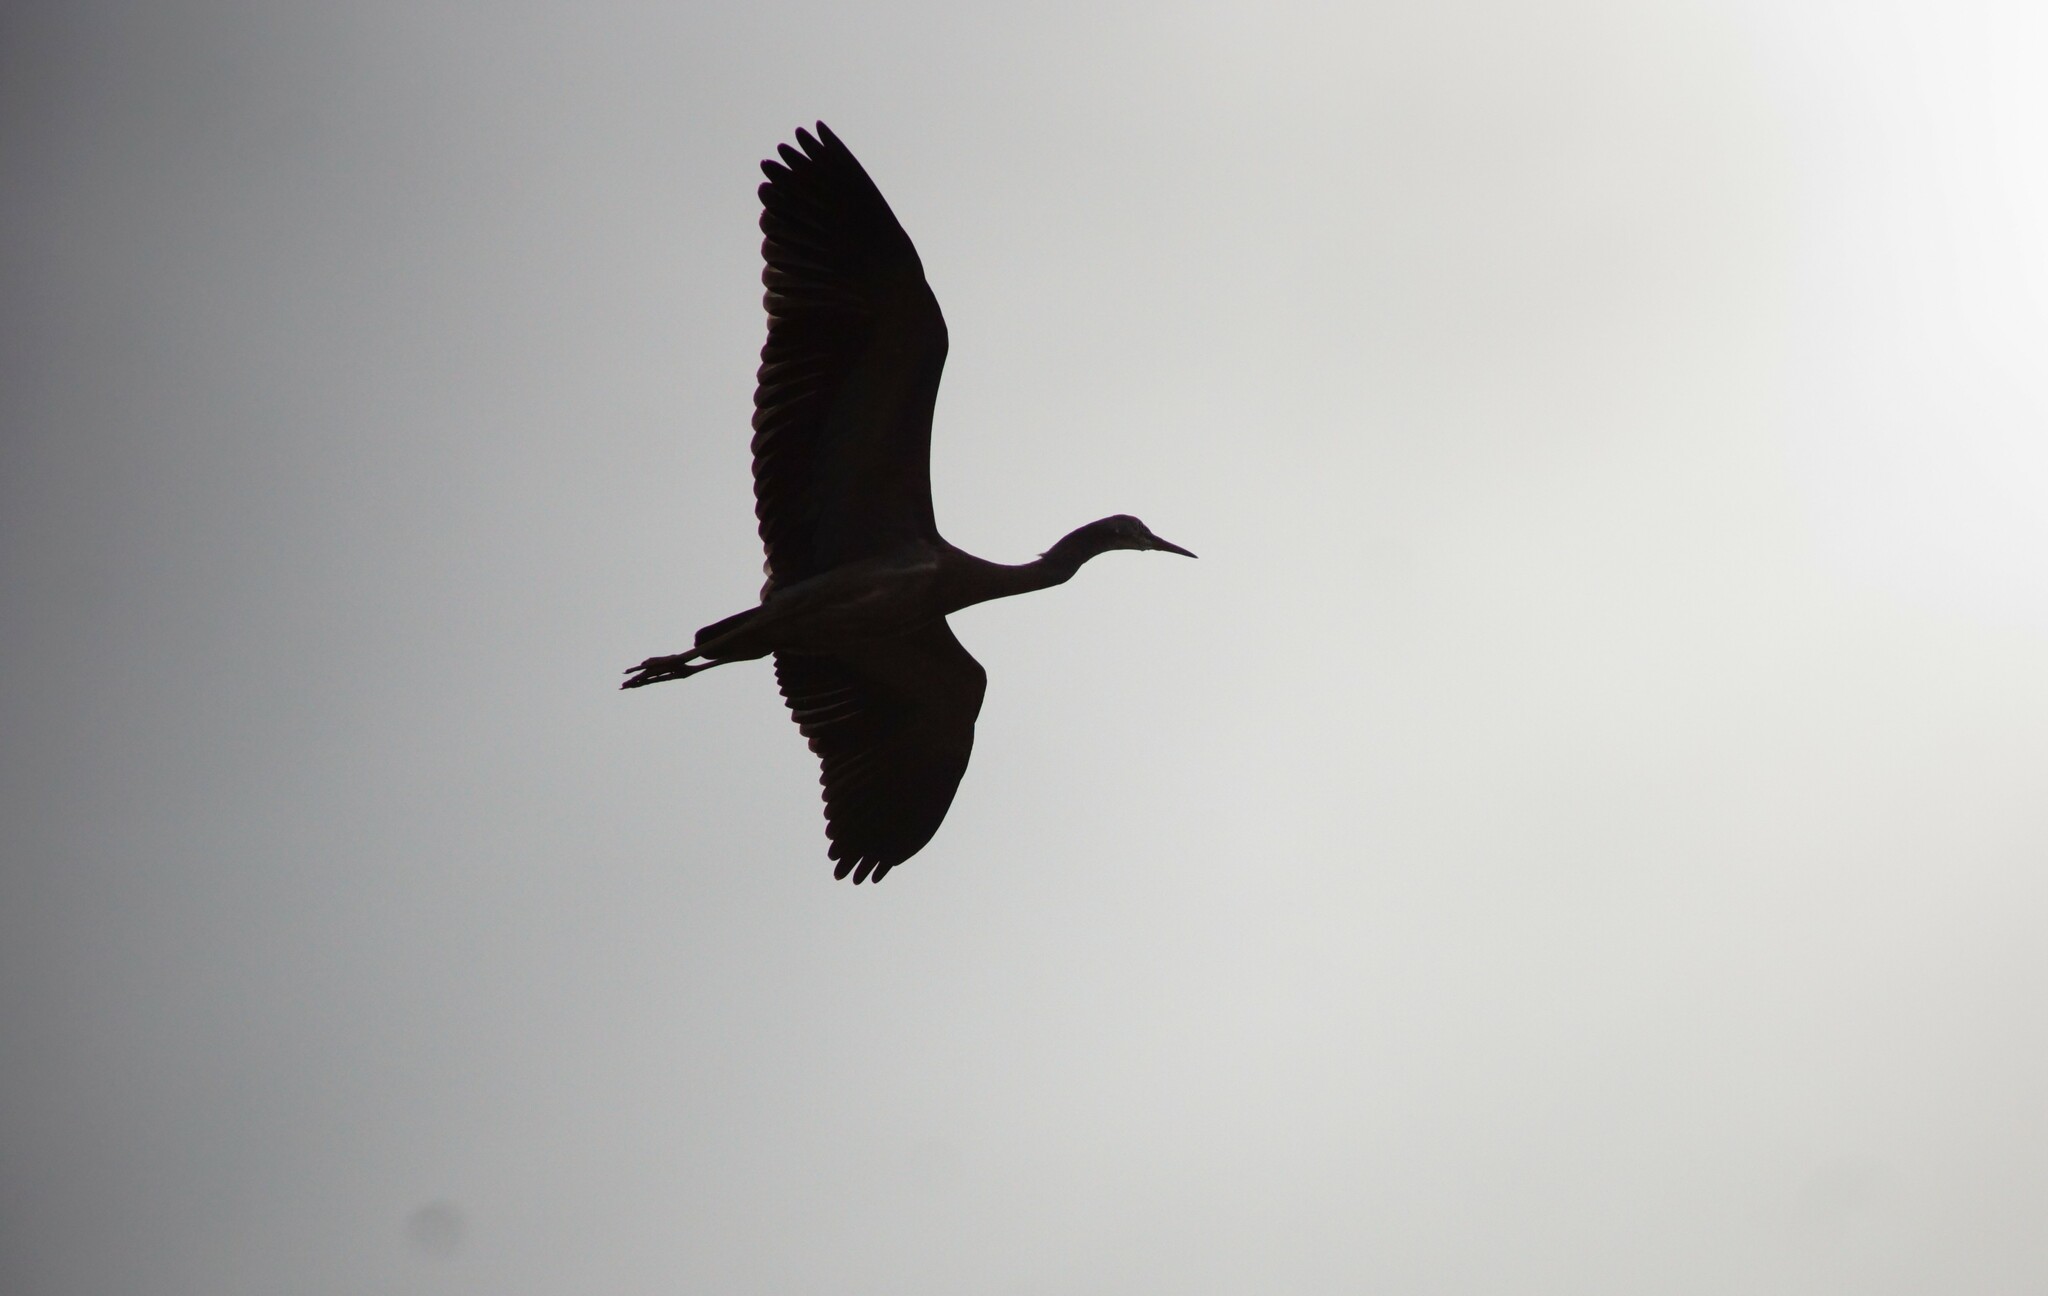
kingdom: Animalia
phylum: Chordata
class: Aves
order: Pelecaniformes
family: Ardeidae
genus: Egretta
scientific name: Egretta novaehollandiae
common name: White-faced heron
